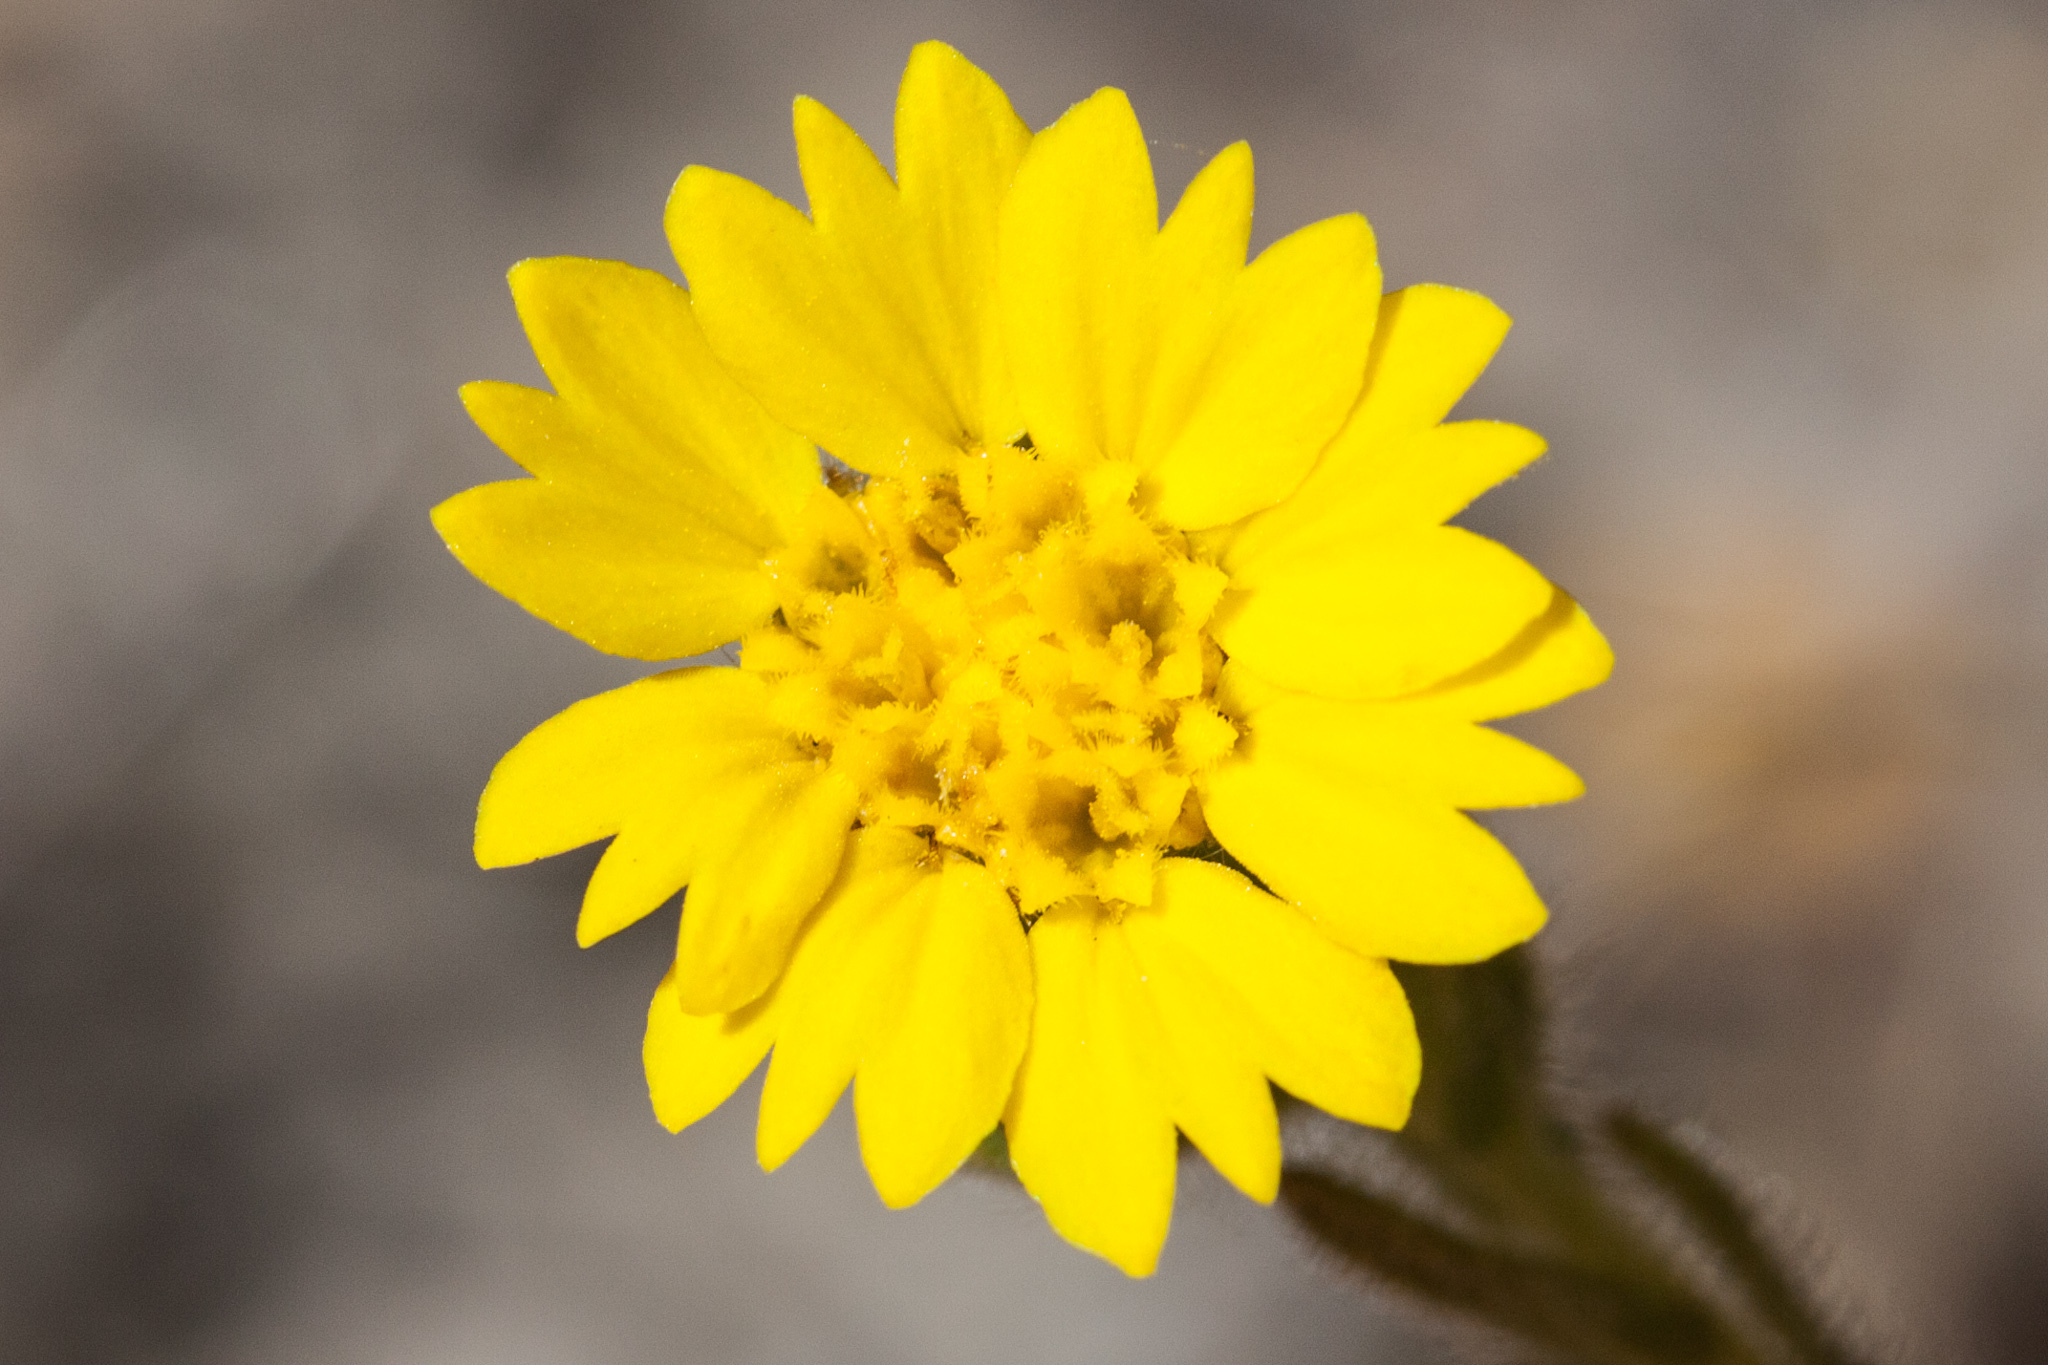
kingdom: Plantae
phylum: Tracheophyta
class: Magnoliopsida
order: Asterales
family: Asteraceae
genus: Deinandra
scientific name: Deinandra bacigalupii
